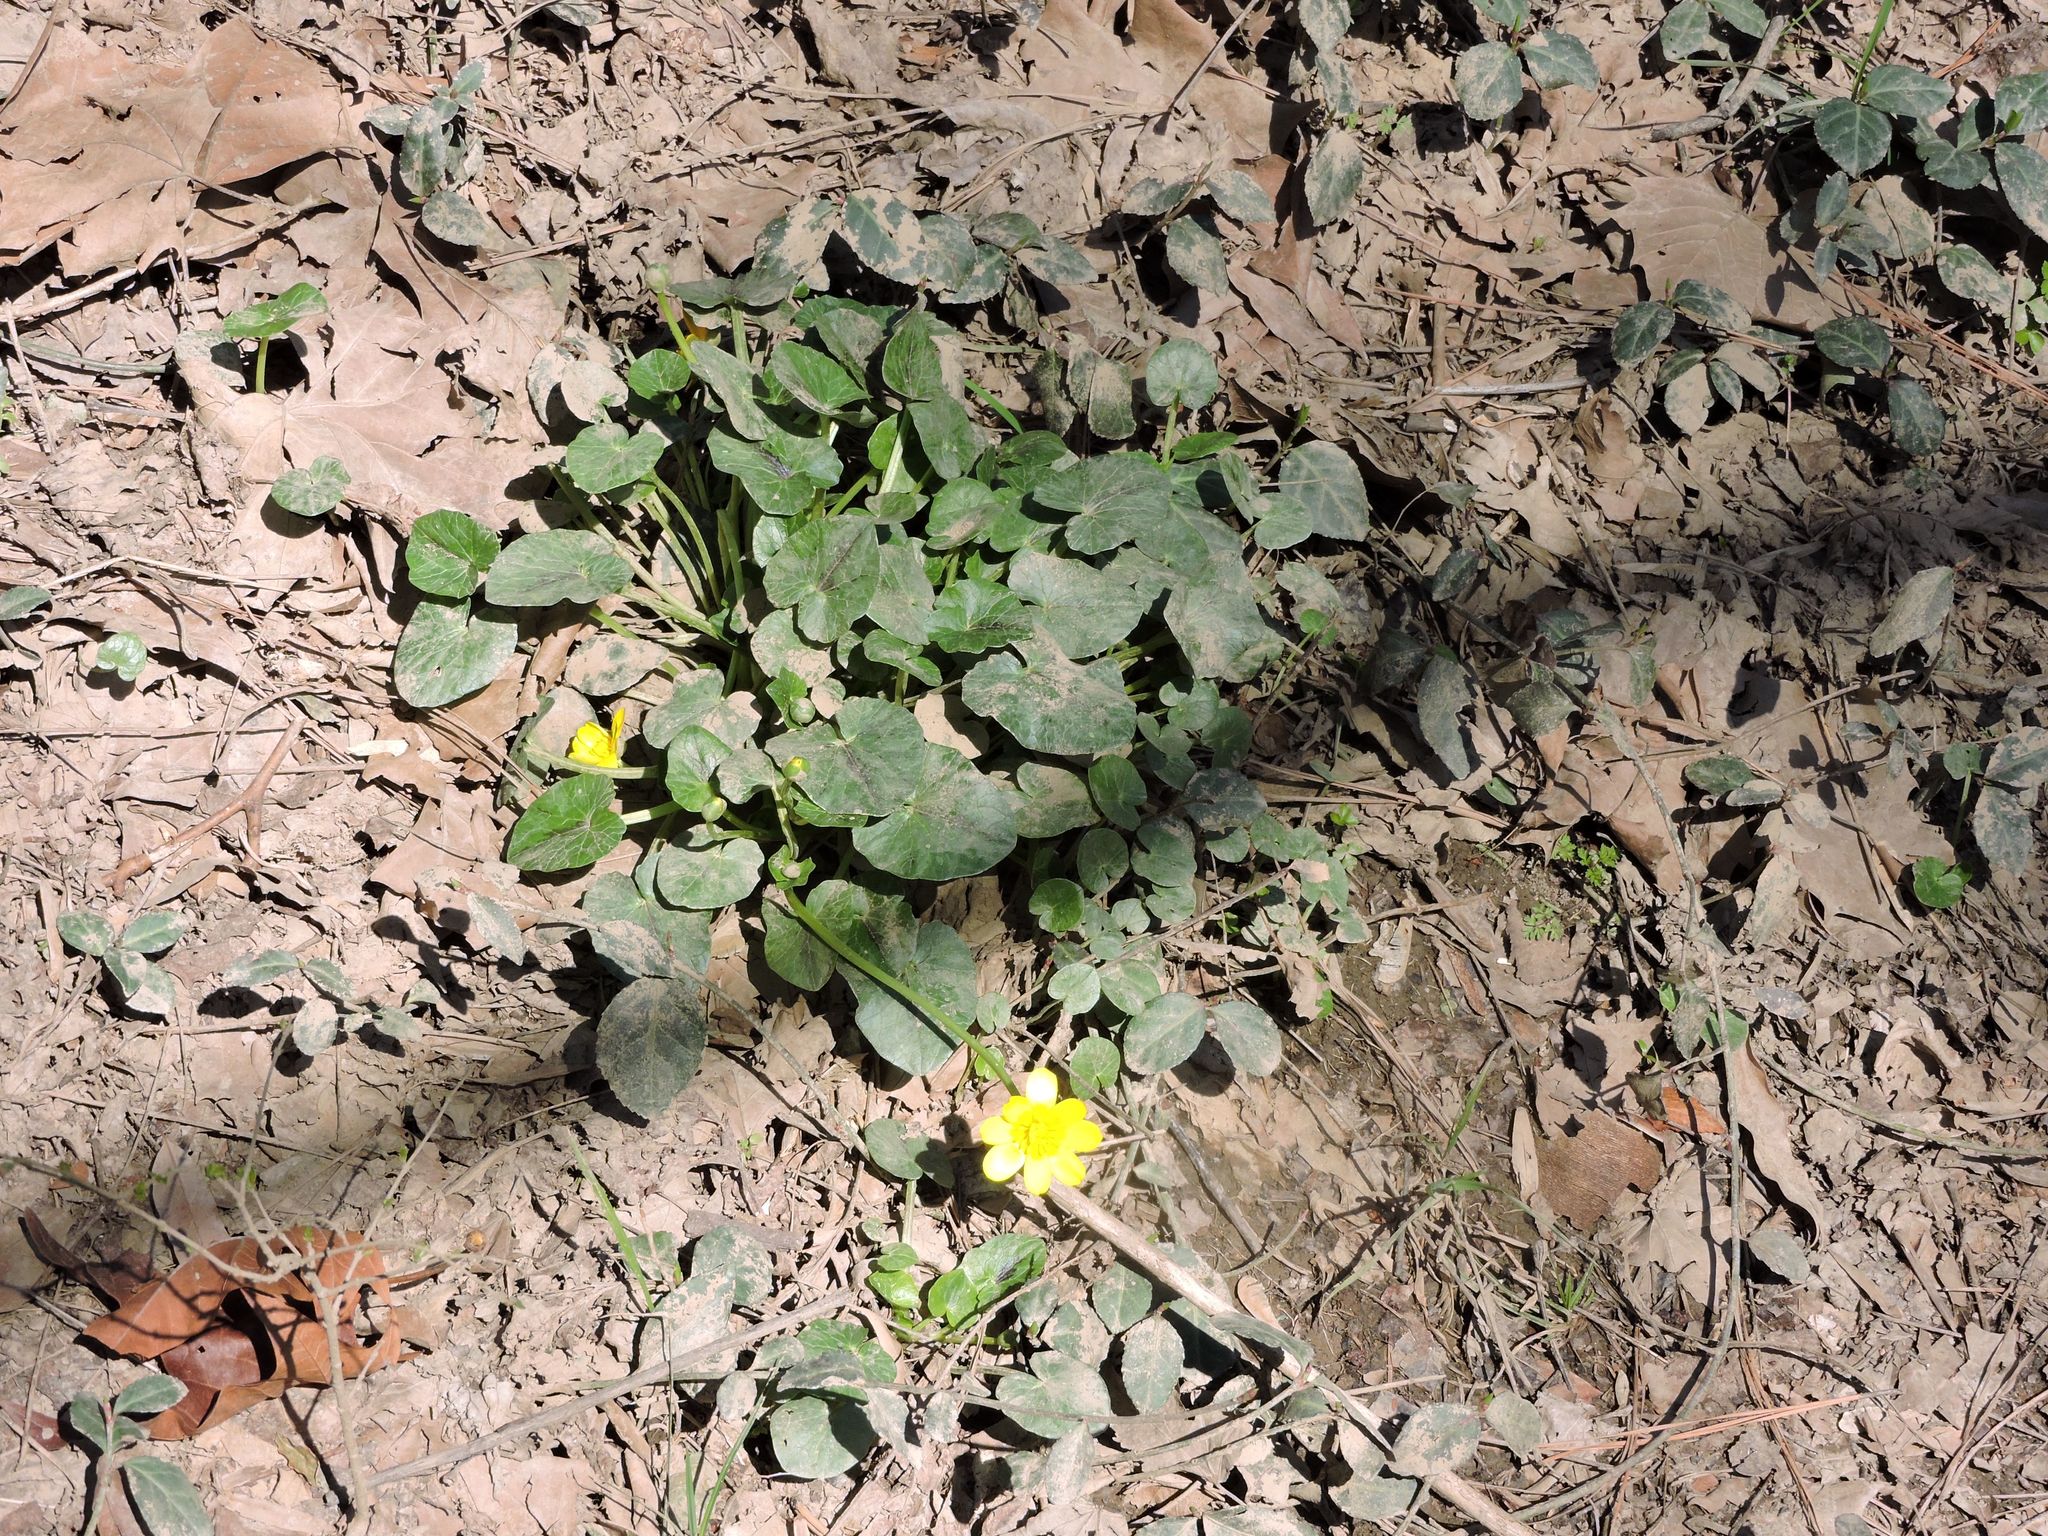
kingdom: Plantae
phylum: Tracheophyta
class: Magnoliopsida
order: Ranunculales
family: Ranunculaceae
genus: Ficaria
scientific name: Ficaria verna
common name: Lesser celandine
